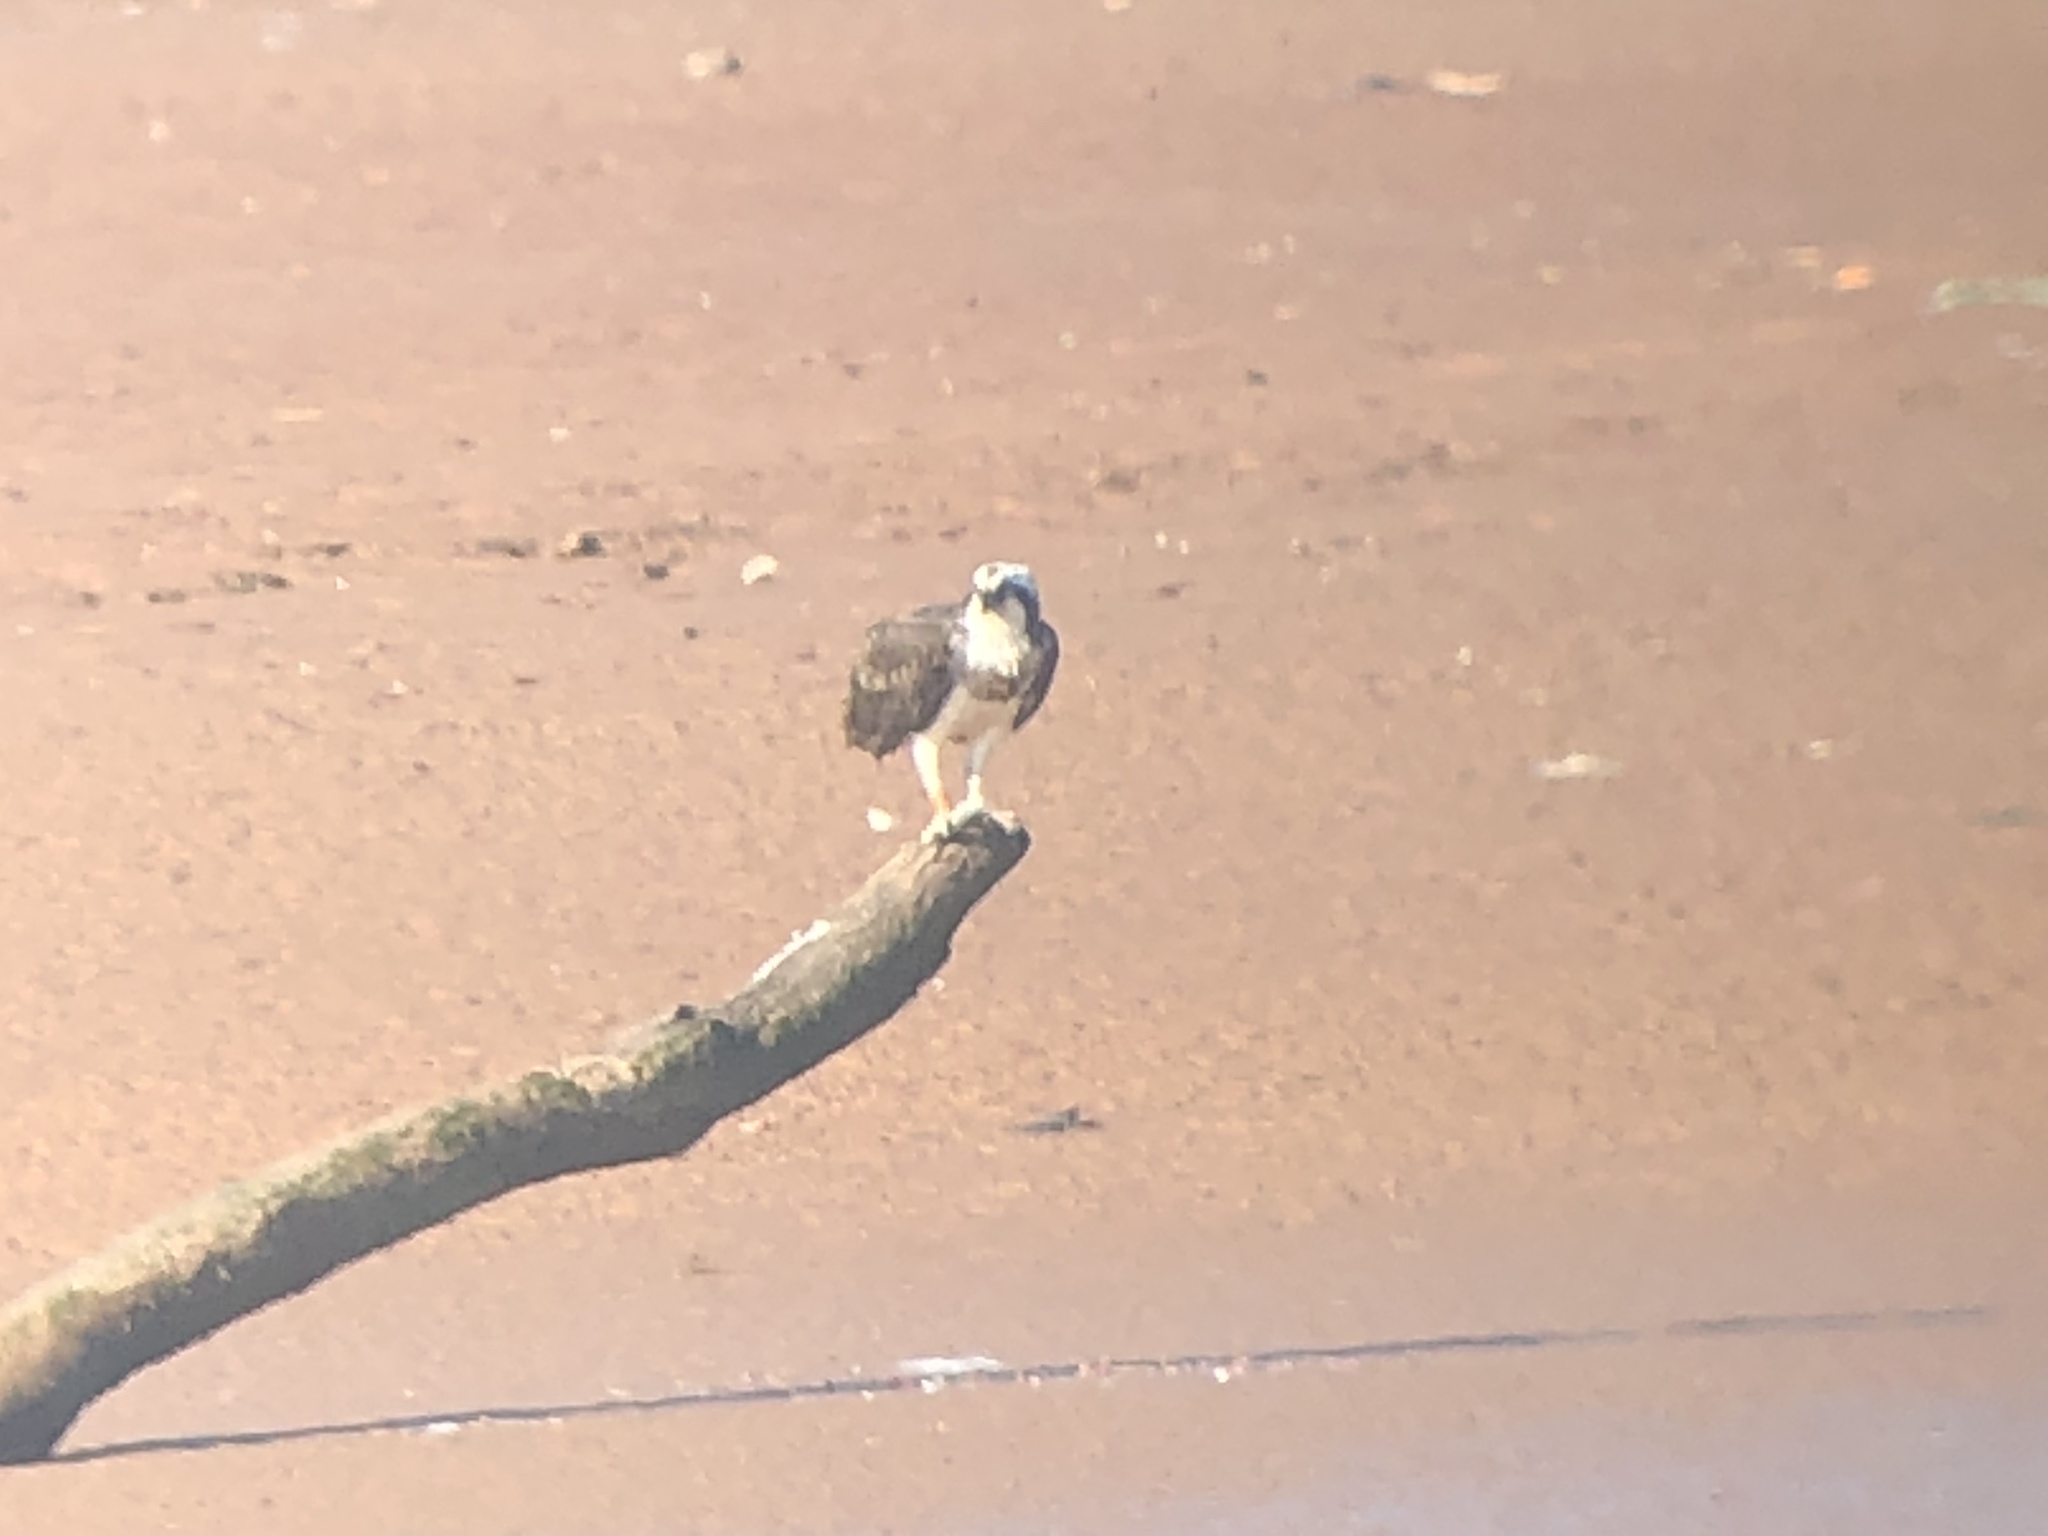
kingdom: Animalia
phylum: Chordata
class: Aves
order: Accipitriformes
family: Pandionidae
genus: Pandion
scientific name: Pandion haliaetus
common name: Osprey
